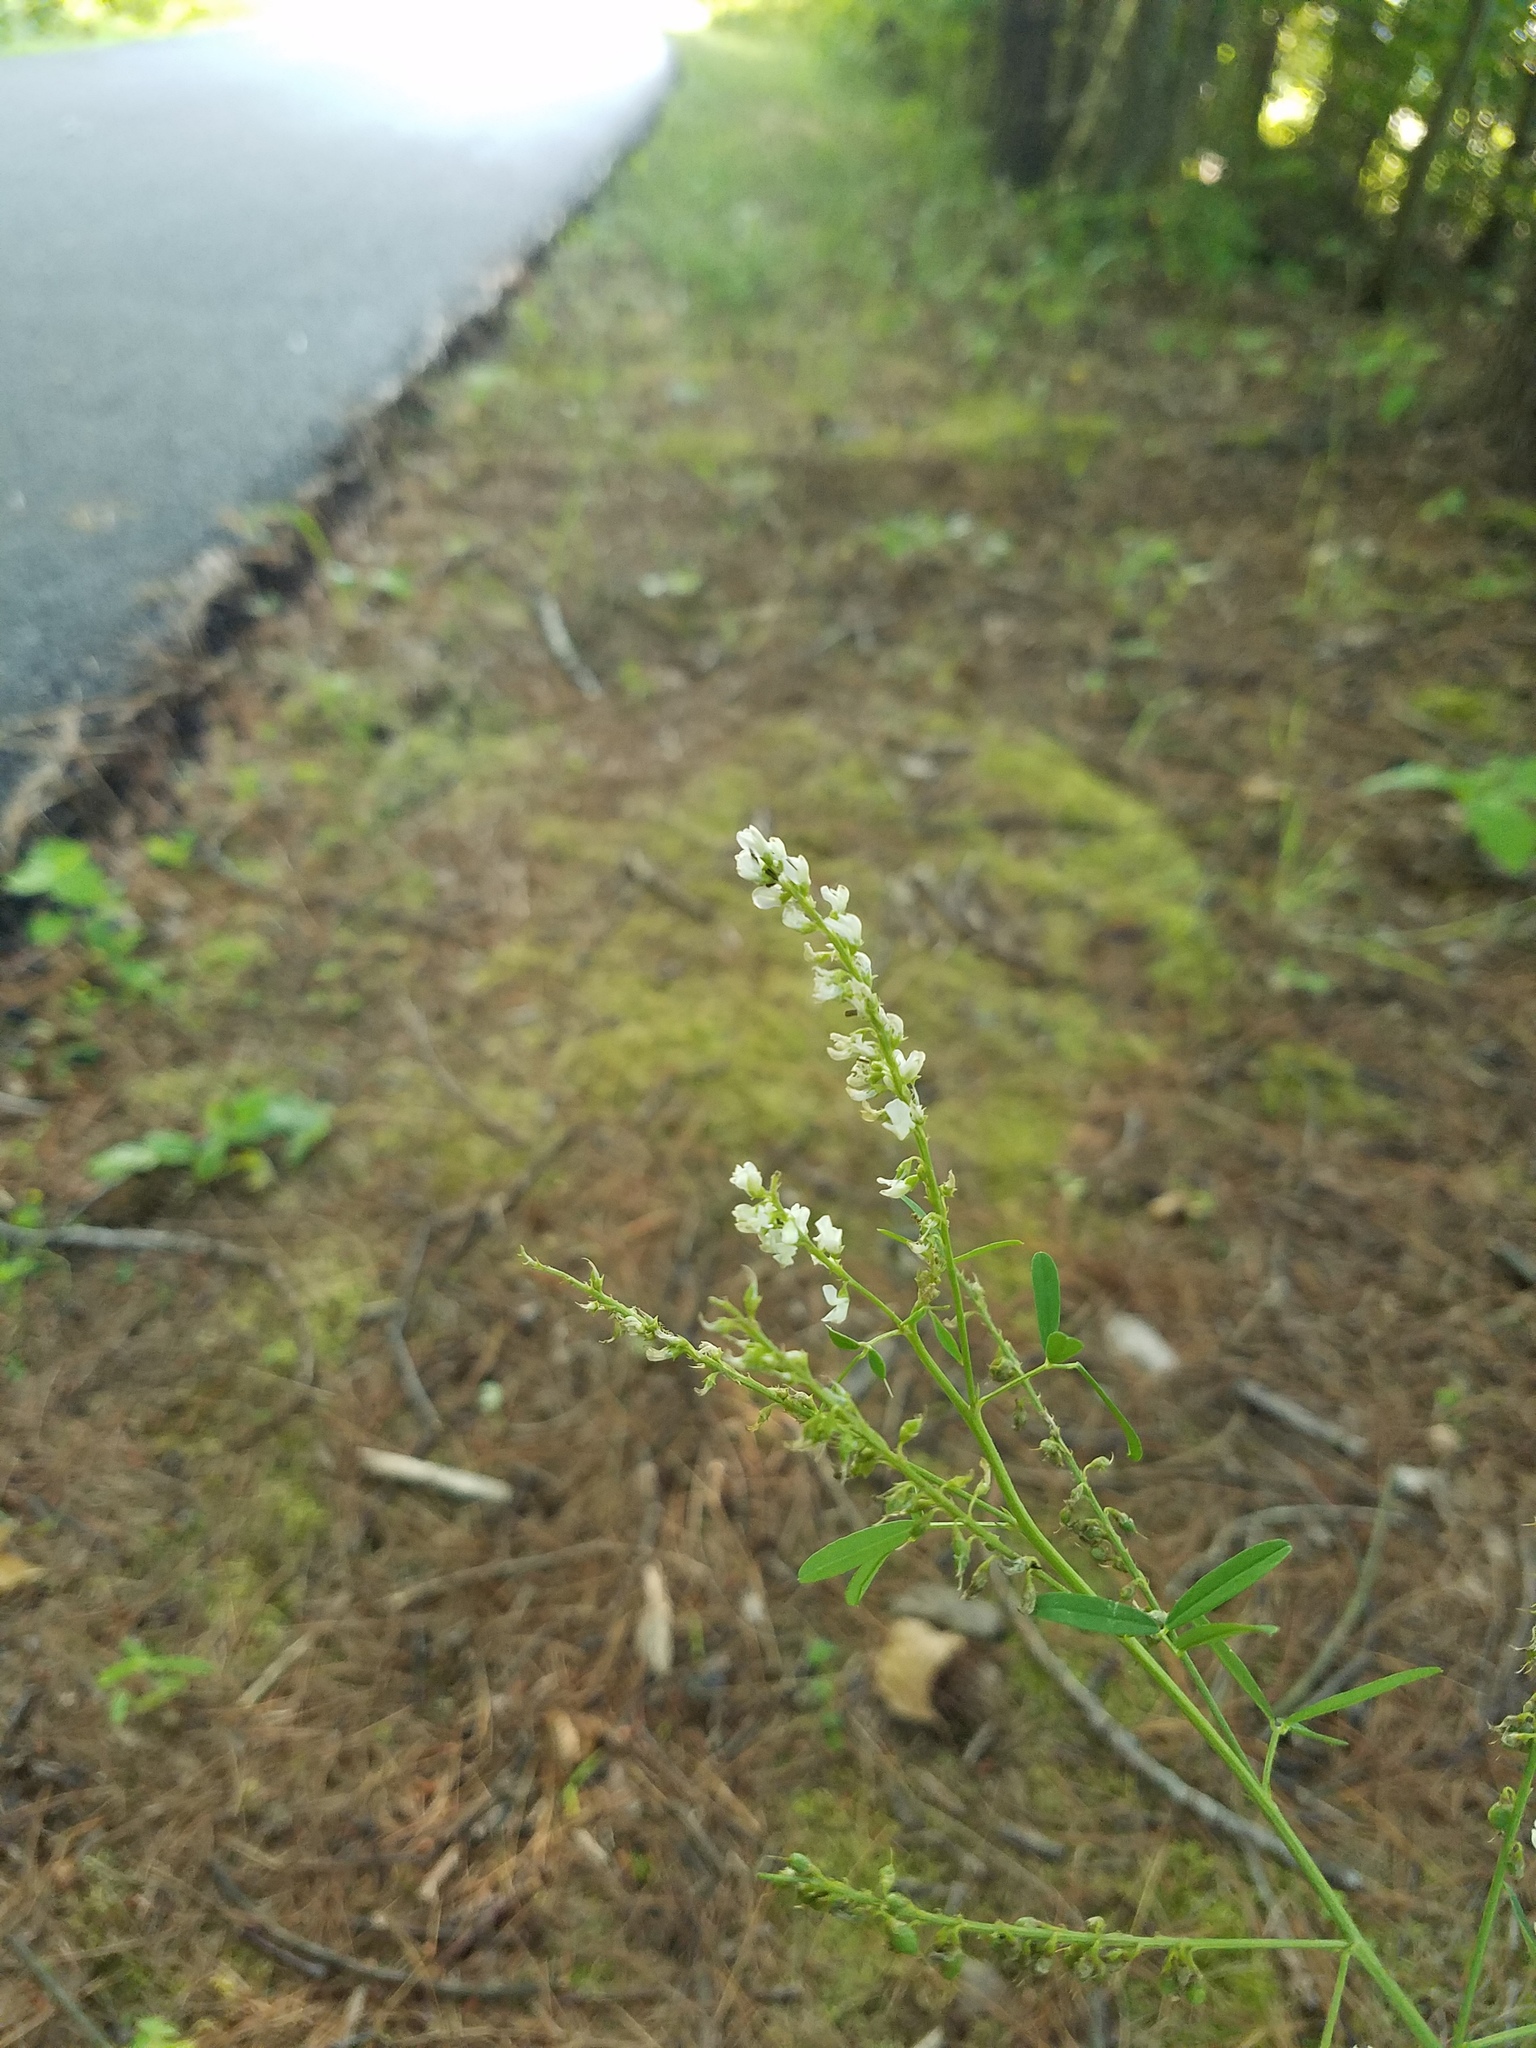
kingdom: Plantae
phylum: Tracheophyta
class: Magnoliopsida
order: Fabales
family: Fabaceae
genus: Melilotus
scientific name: Melilotus albus
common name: White melilot
